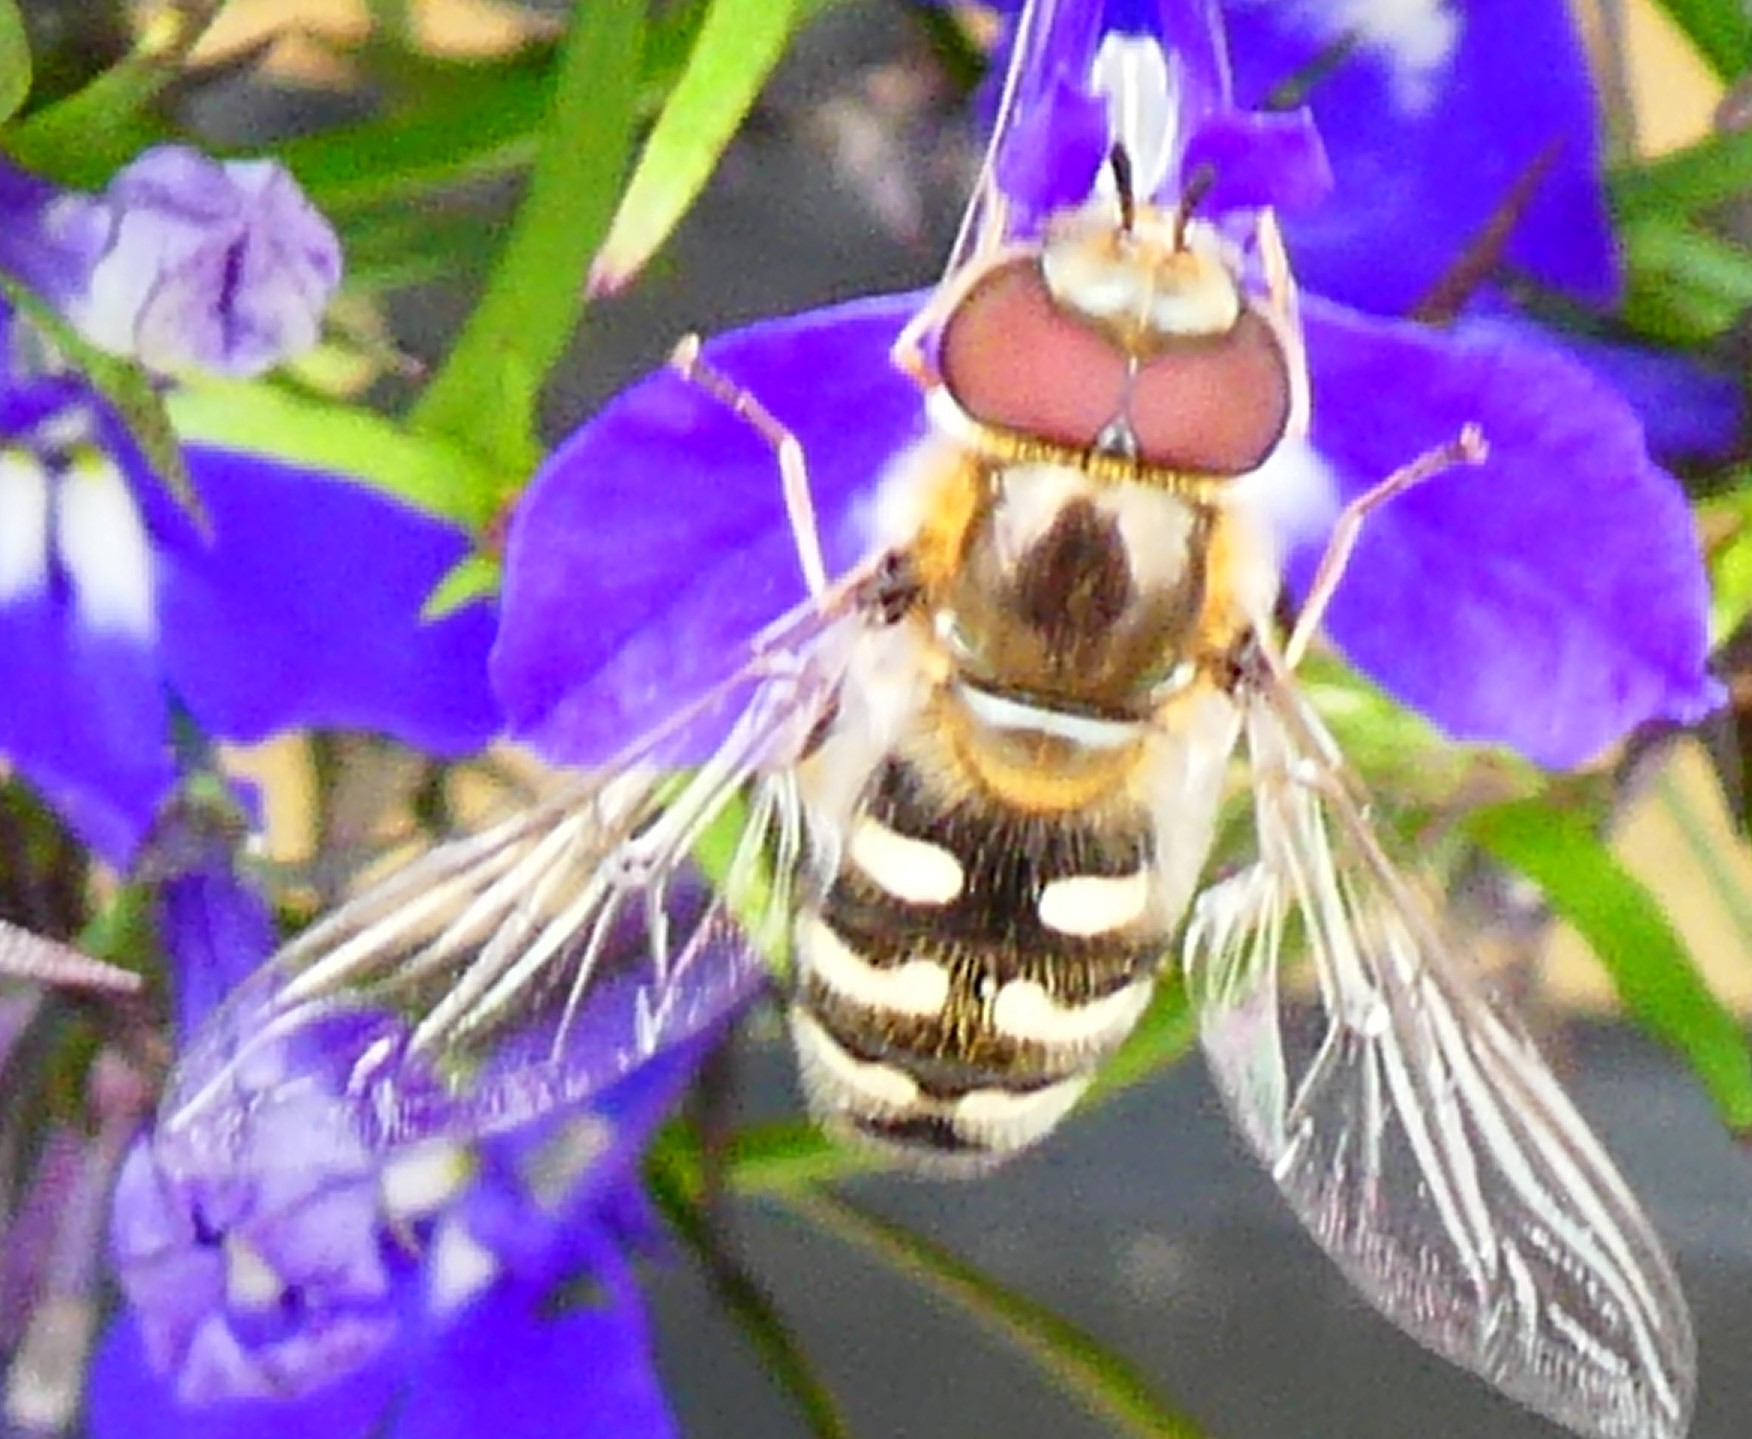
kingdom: Animalia
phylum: Arthropoda
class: Insecta
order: Diptera
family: Syrphidae
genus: Scaeva
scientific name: Scaeva pyrastri
